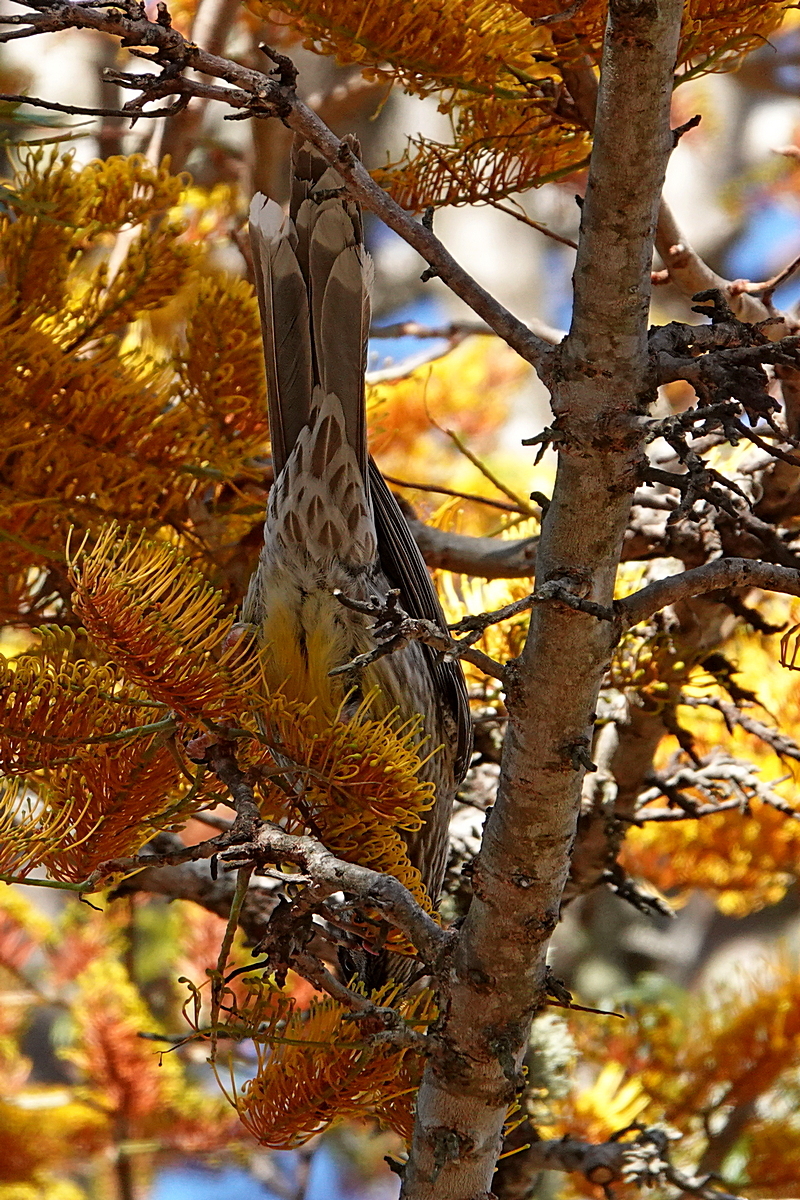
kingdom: Animalia
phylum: Chordata
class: Aves
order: Passeriformes
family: Meliphagidae
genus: Anthochaera
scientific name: Anthochaera carunculata
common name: Red wattlebird
